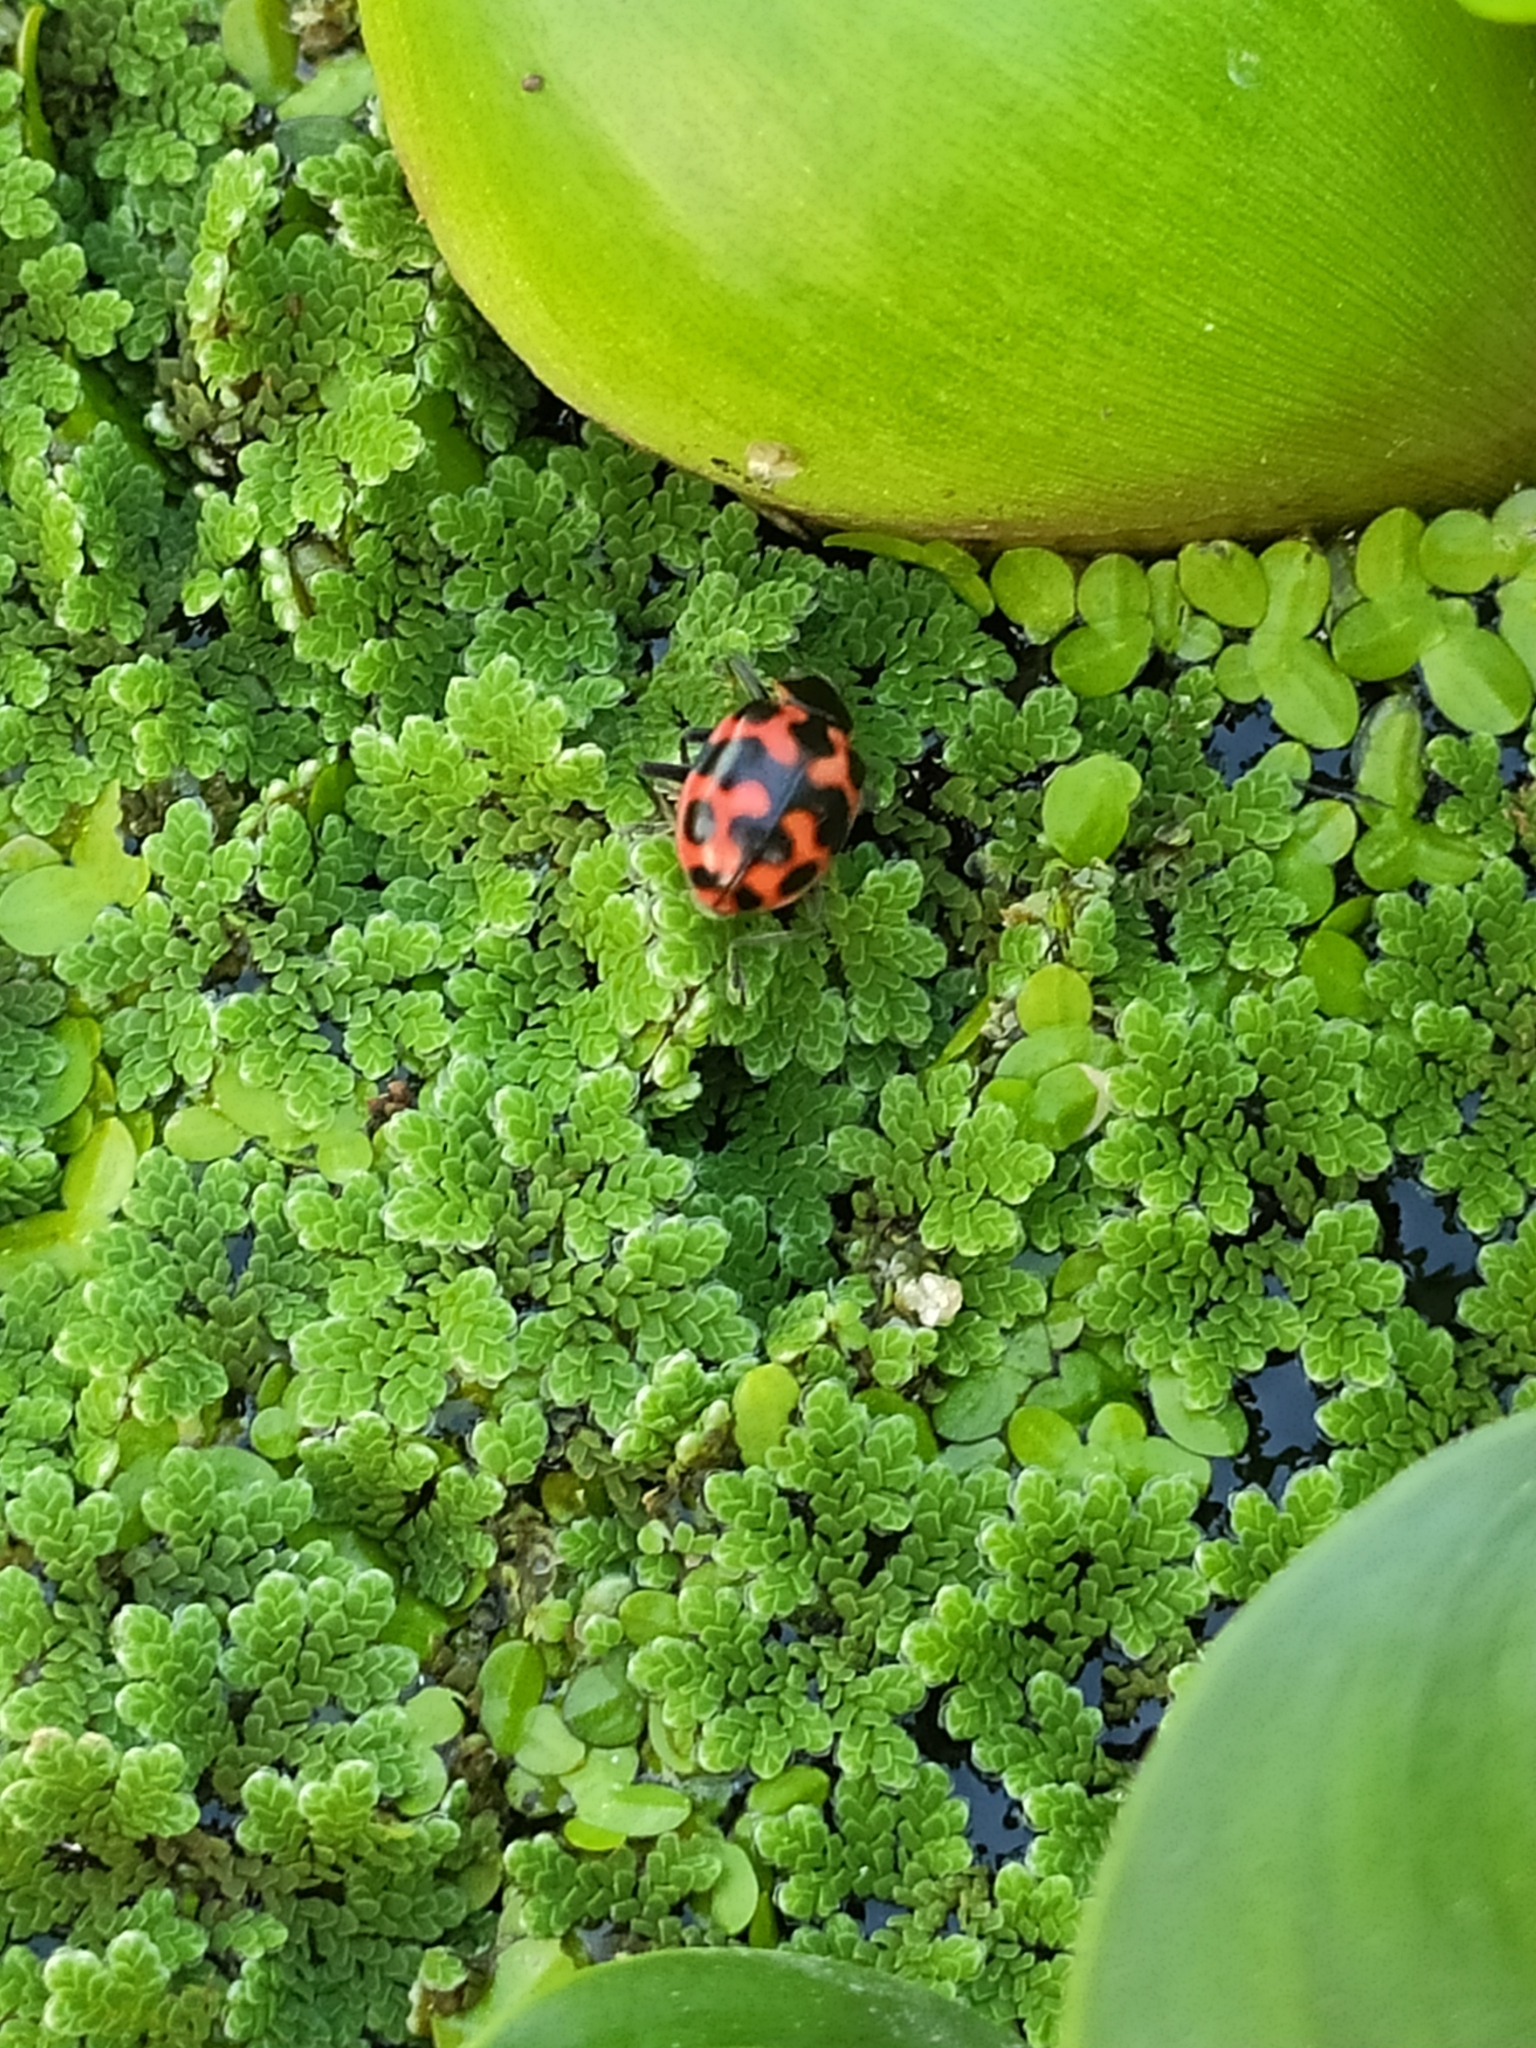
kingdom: Animalia
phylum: Arthropoda
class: Insecta
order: Coleoptera
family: Coccinellidae
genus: Coleomegilla
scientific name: Coleomegilla
